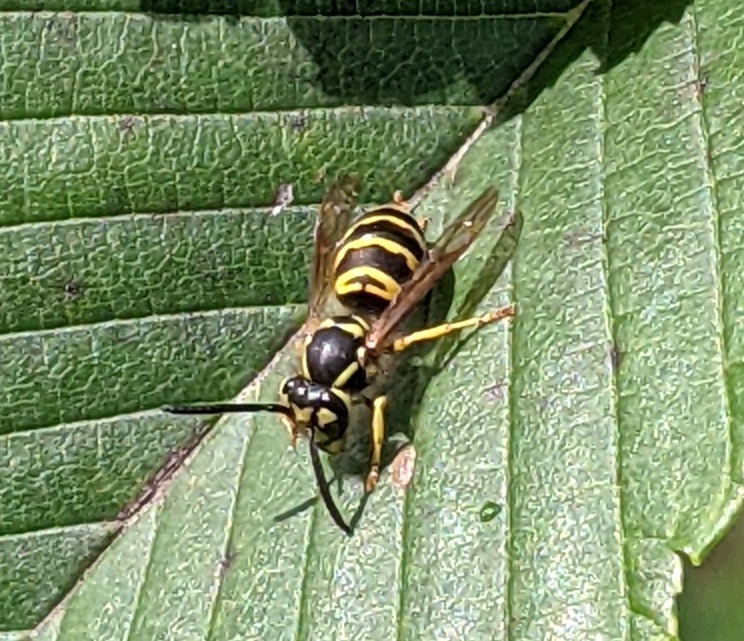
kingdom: Animalia
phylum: Arthropoda
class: Insecta
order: Hymenoptera
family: Vespidae
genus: Vespula
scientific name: Vespula maculifrons
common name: Eastern yellowjacket
